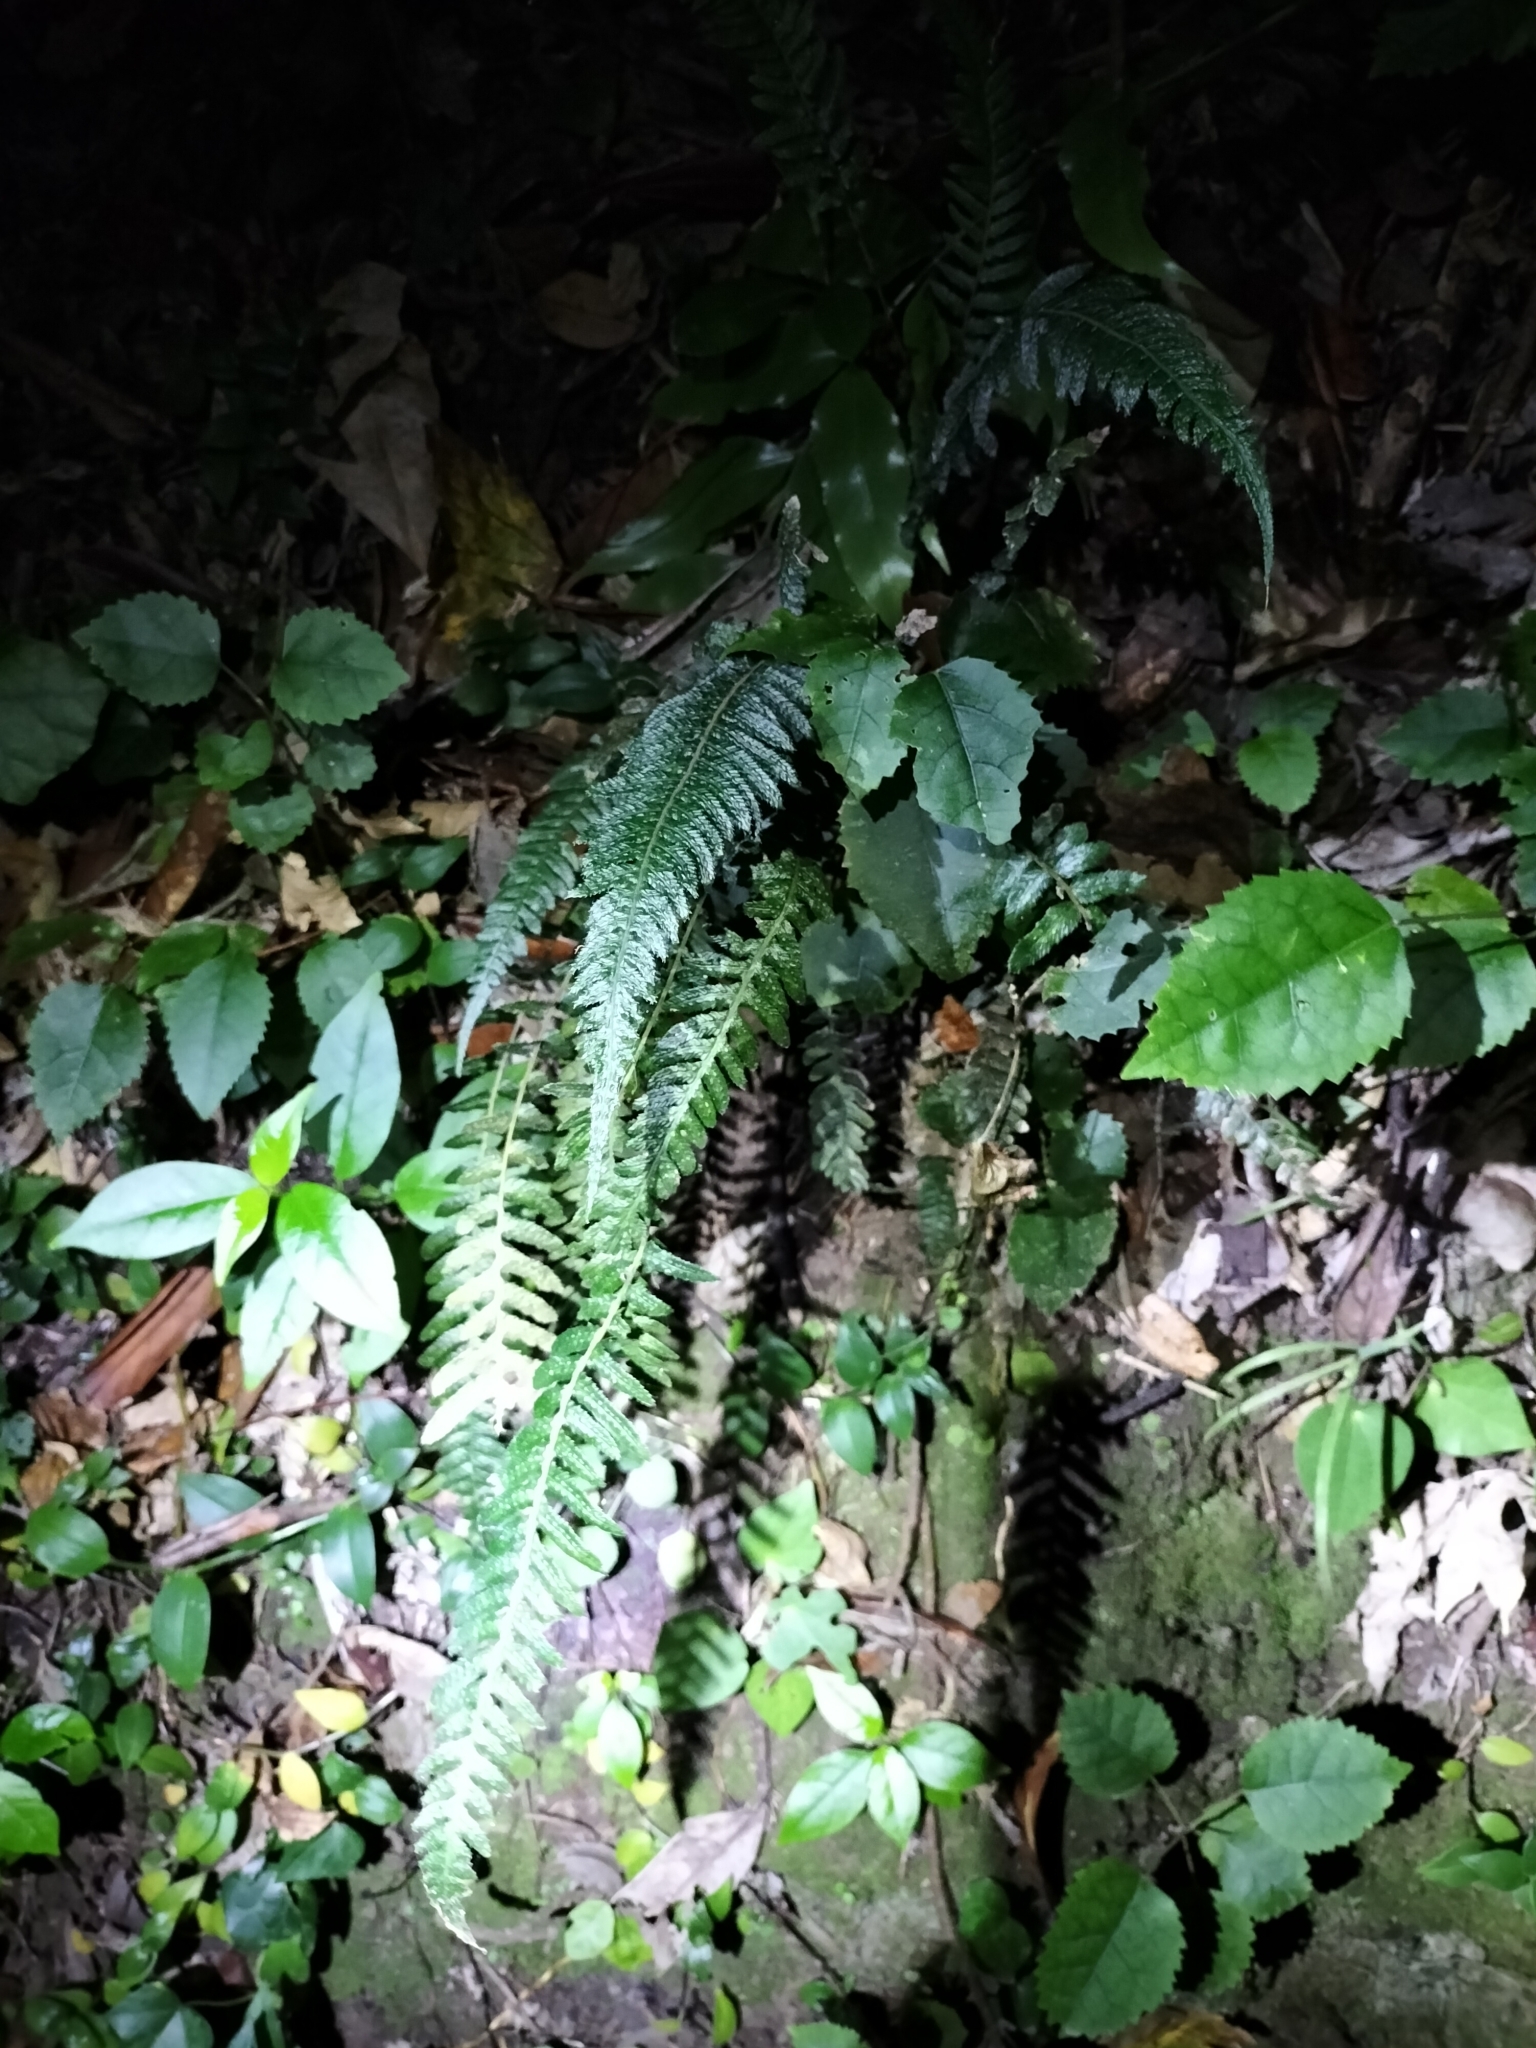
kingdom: Plantae
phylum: Tracheophyta
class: Polypodiopsida
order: Polypodiales
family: Blechnaceae
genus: Doodia
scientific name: Doodia australis
